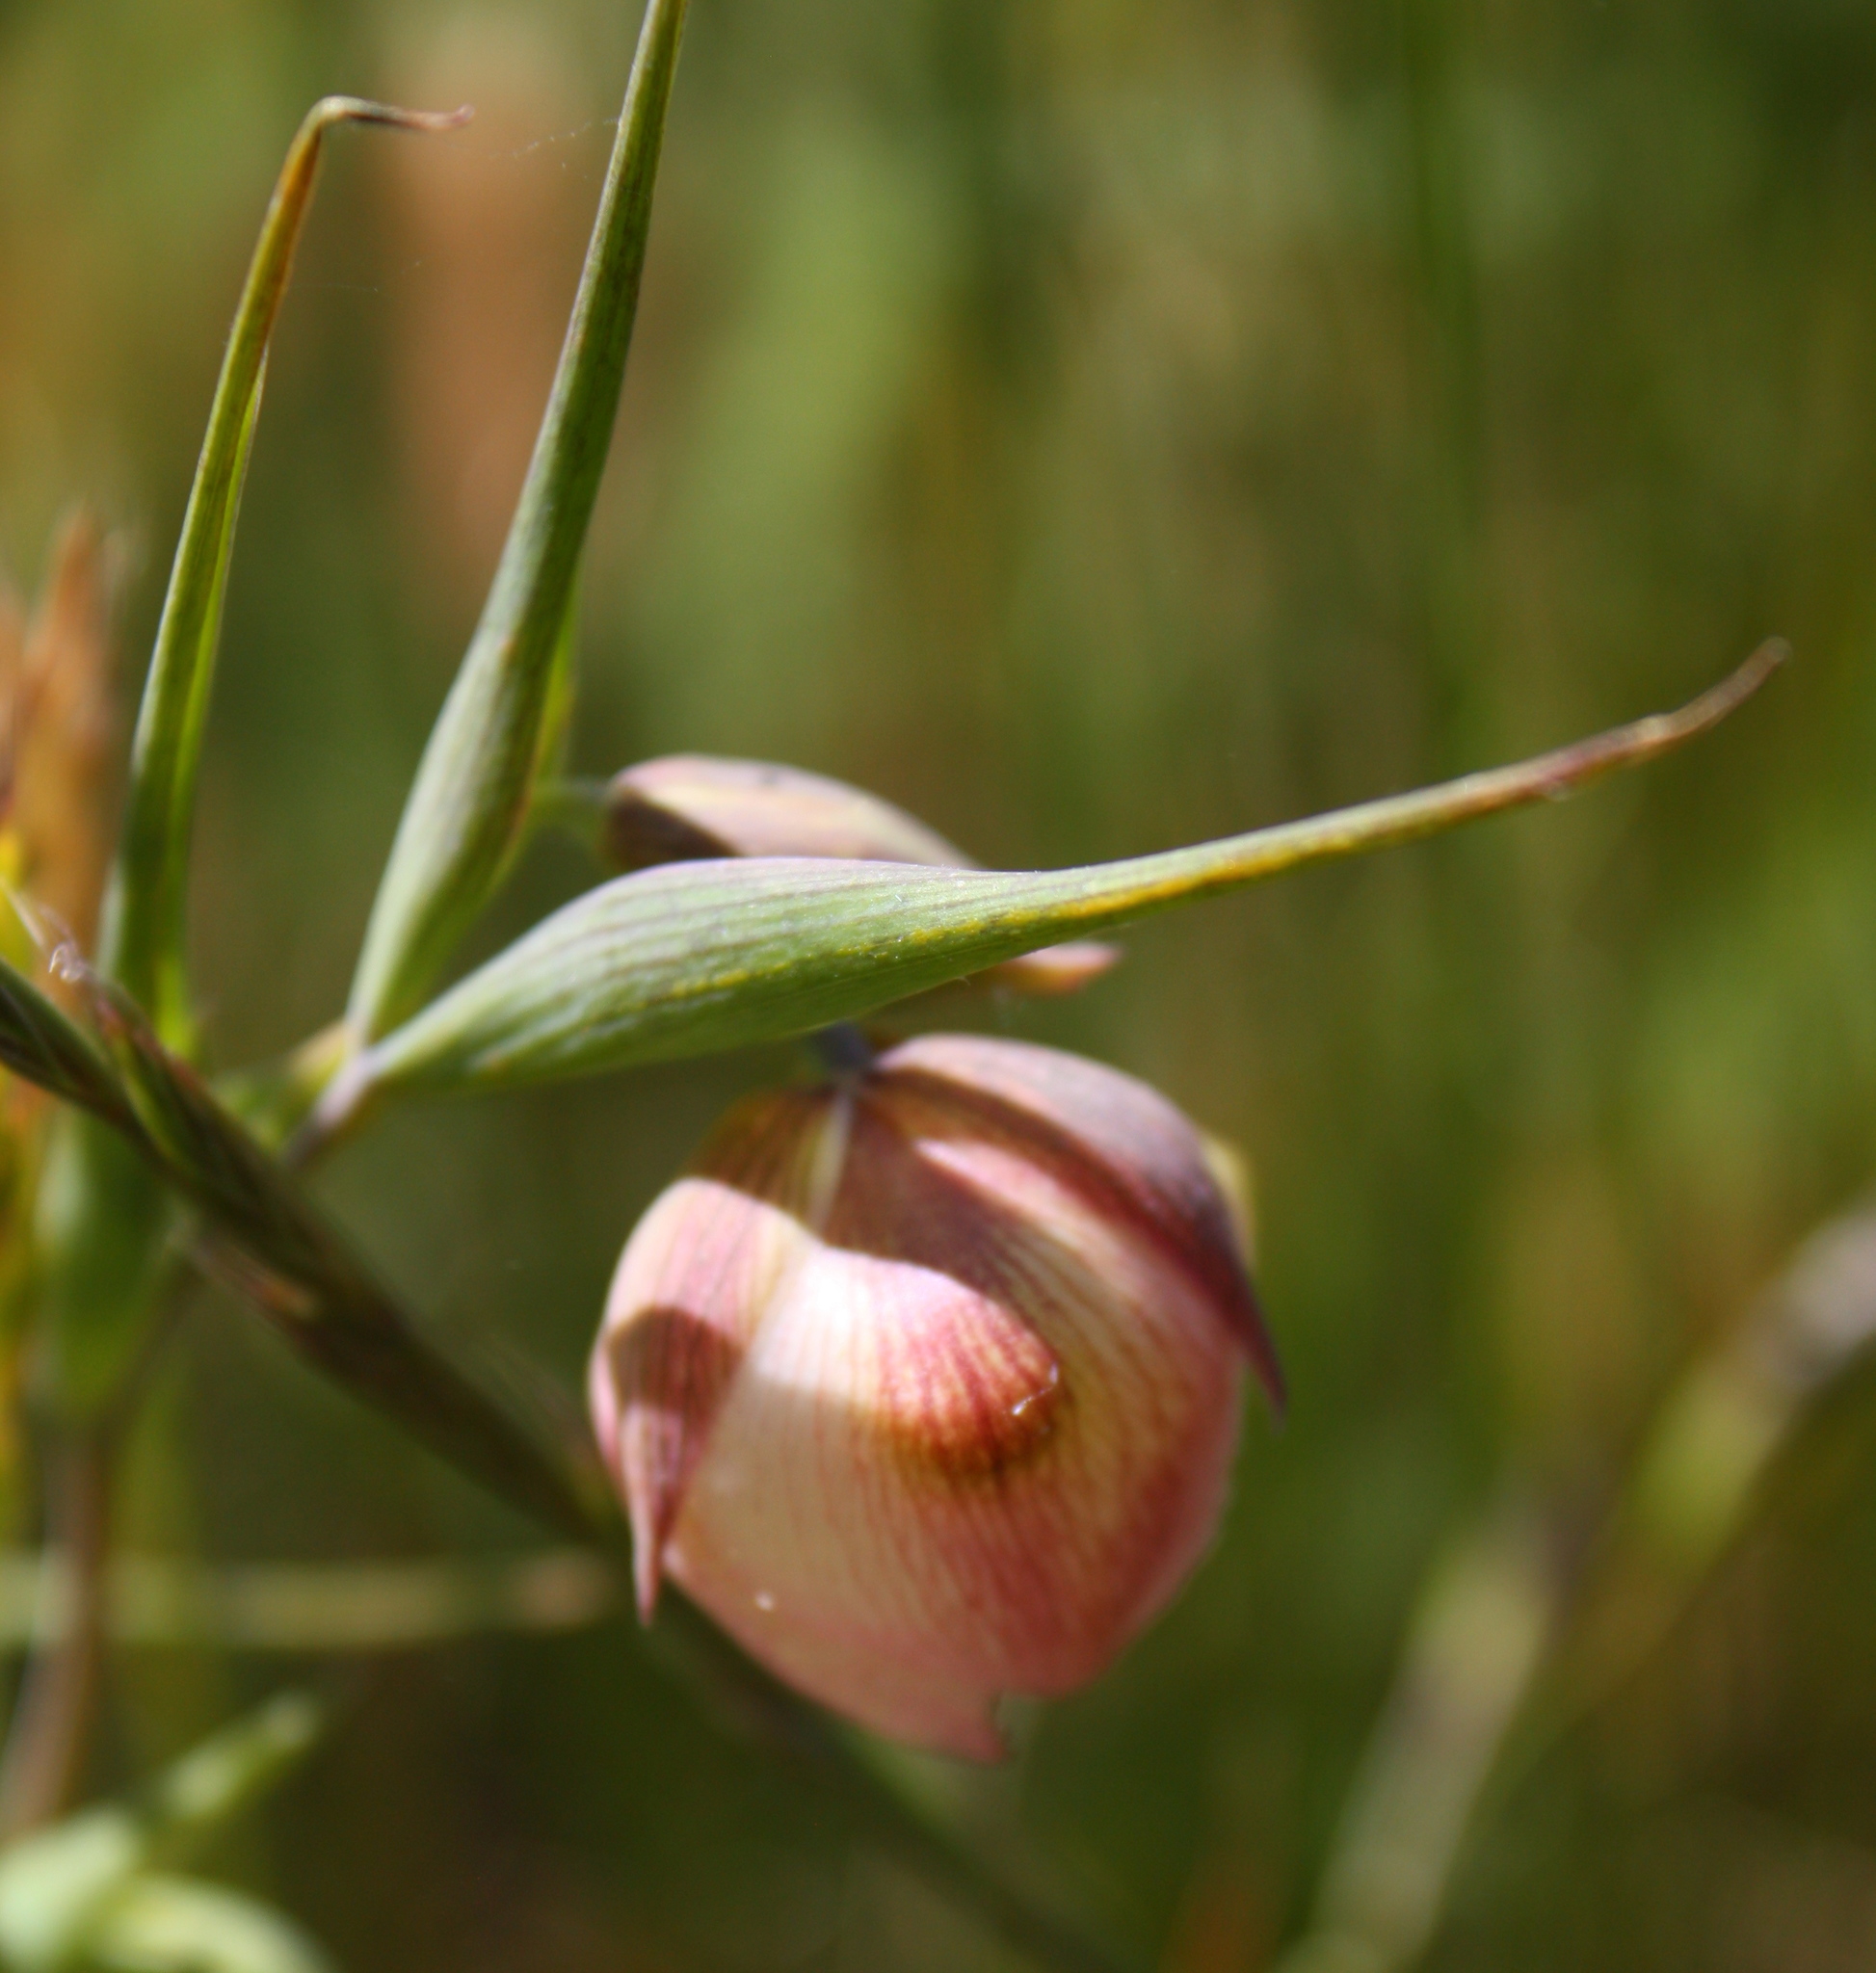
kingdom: Plantae
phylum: Tracheophyta
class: Liliopsida
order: Liliales
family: Liliaceae
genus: Calochortus
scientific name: Calochortus albus
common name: Fairy-lantern
